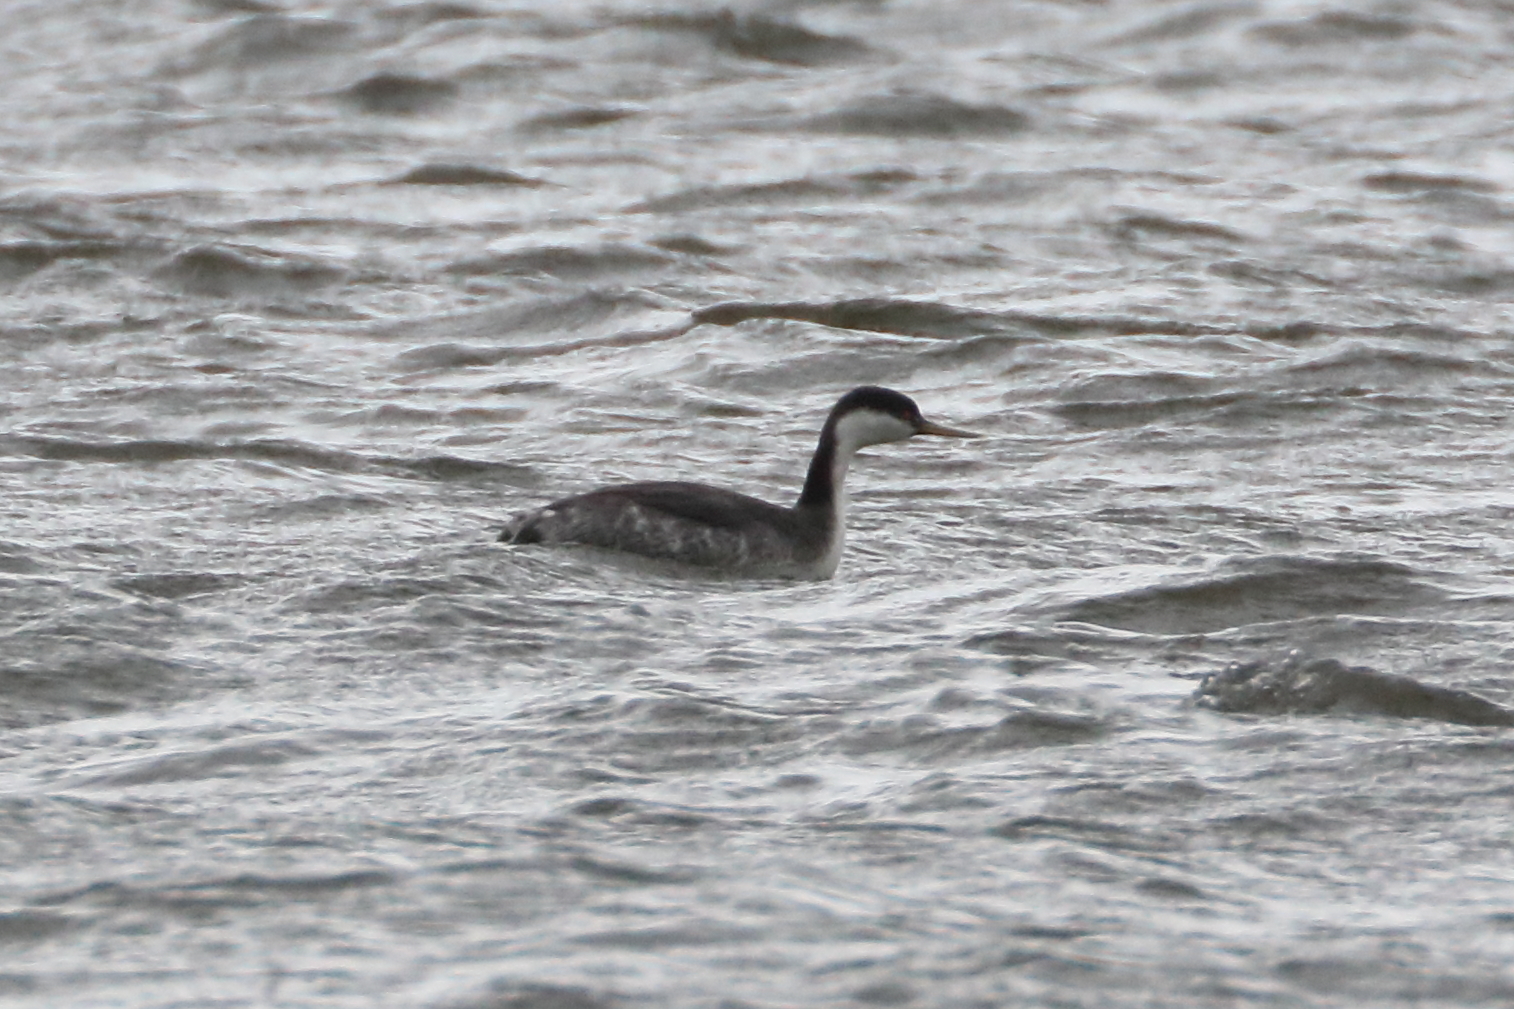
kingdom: Animalia
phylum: Chordata
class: Aves
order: Podicipediformes
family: Podicipedidae
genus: Aechmophorus
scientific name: Aechmophorus occidentalis
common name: Western grebe
